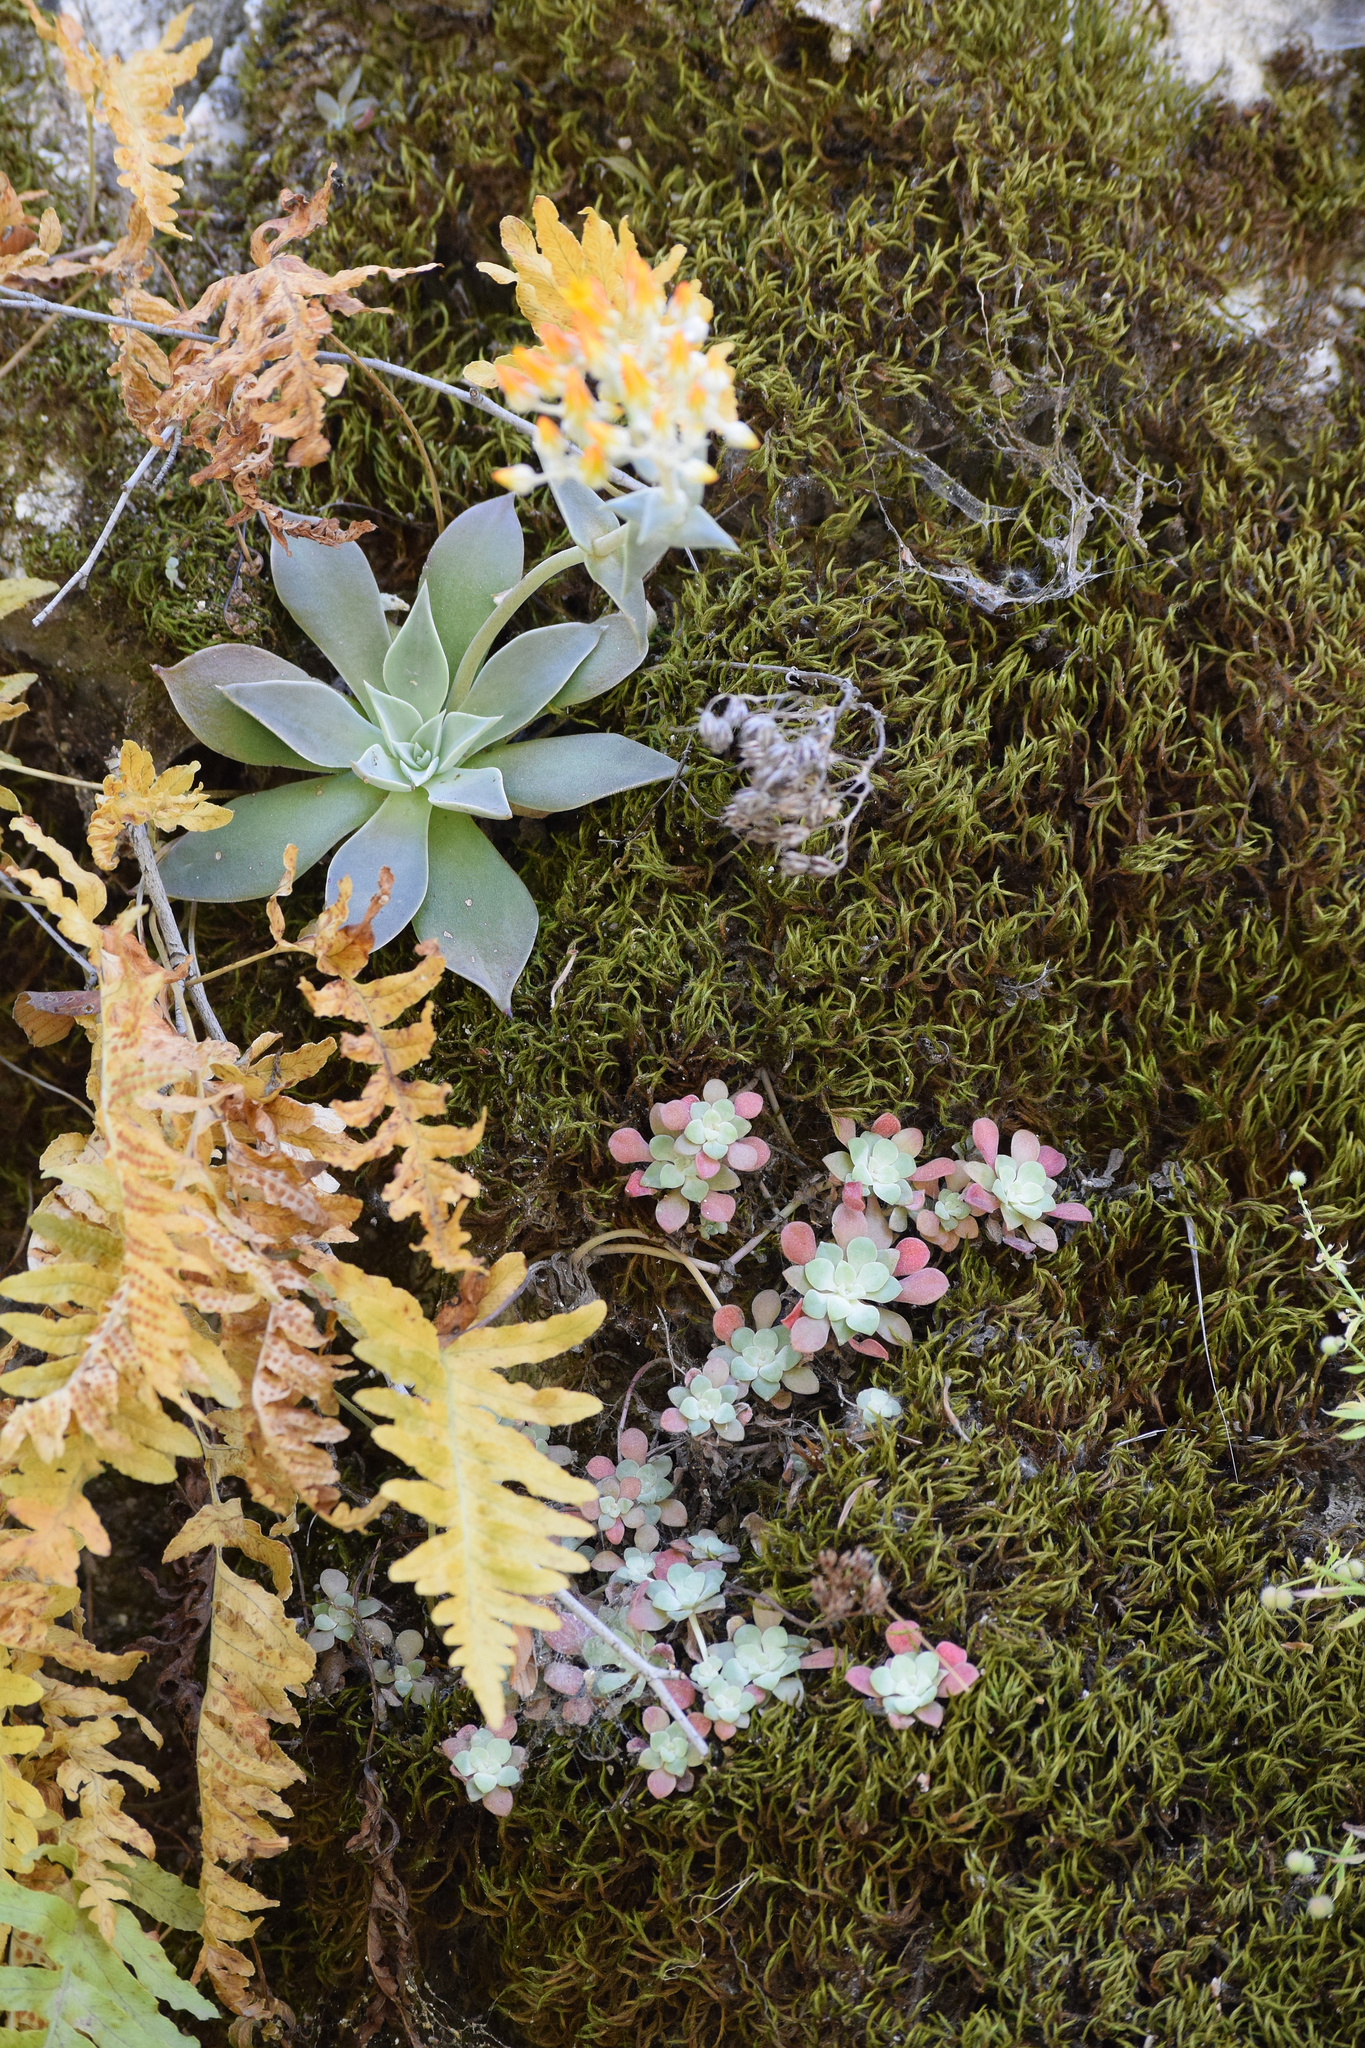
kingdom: Plantae
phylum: Tracheophyta
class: Magnoliopsida
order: Saxifragales
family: Crassulaceae
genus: Sedum
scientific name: Sedum spathulifolium
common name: Colorado stonecrop
